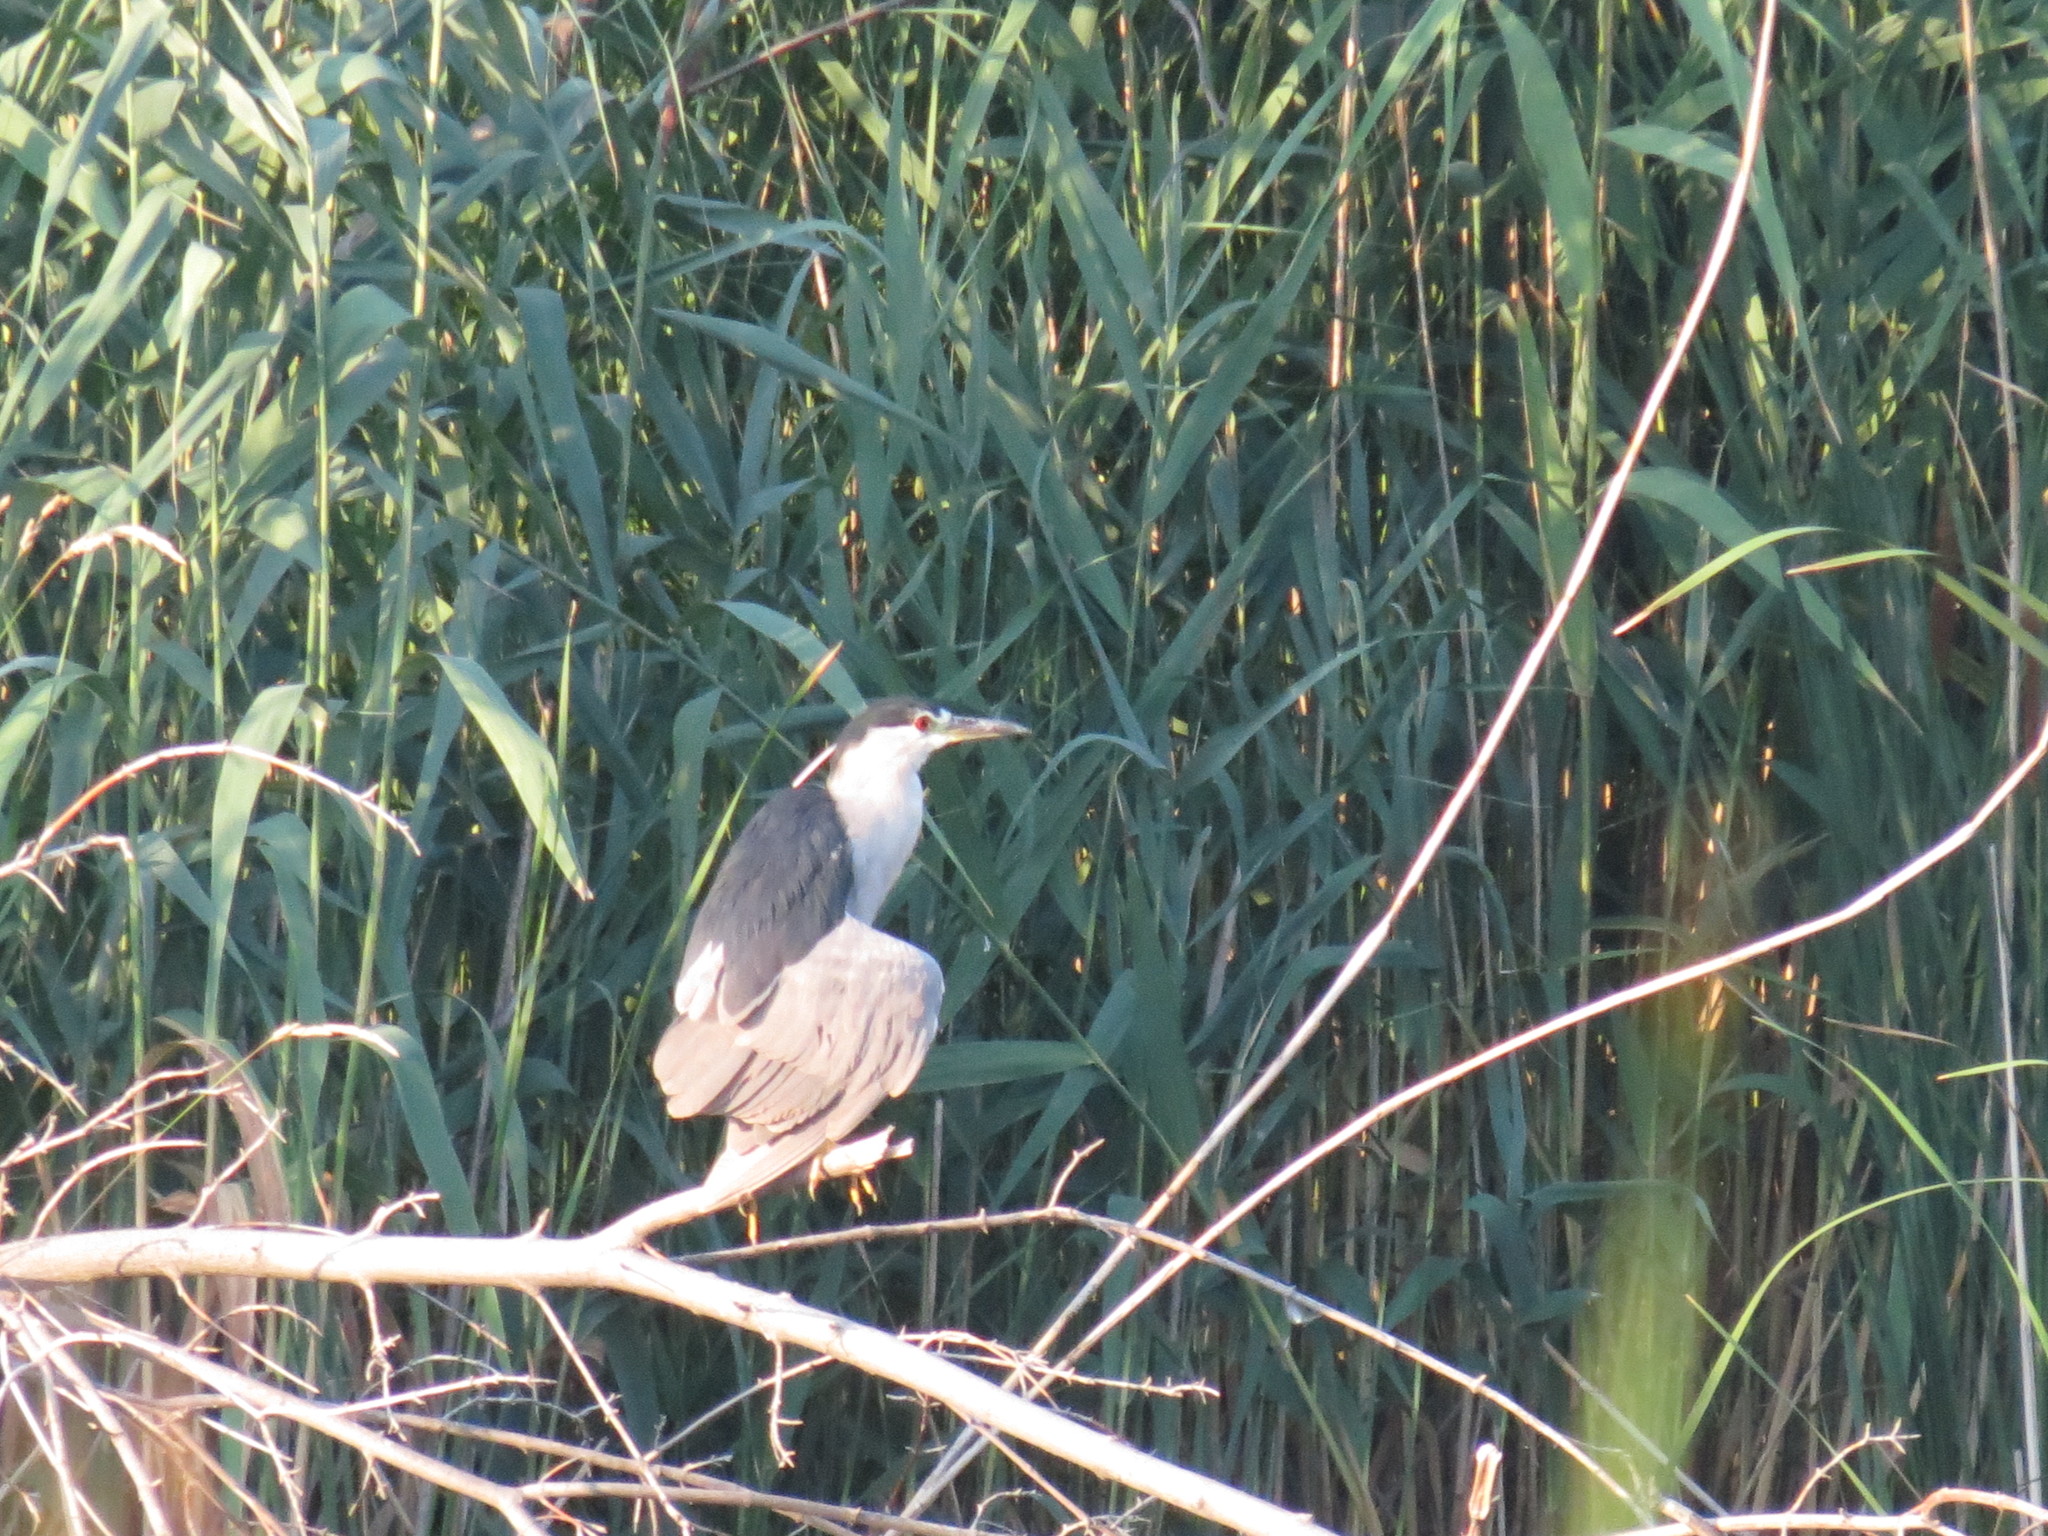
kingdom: Animalia
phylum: Chordata
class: Aves
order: Pelecaniformes
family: Ardeidae
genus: Nycticorax
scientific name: Nycticorax nycticorax
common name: Black-crowned night heron
